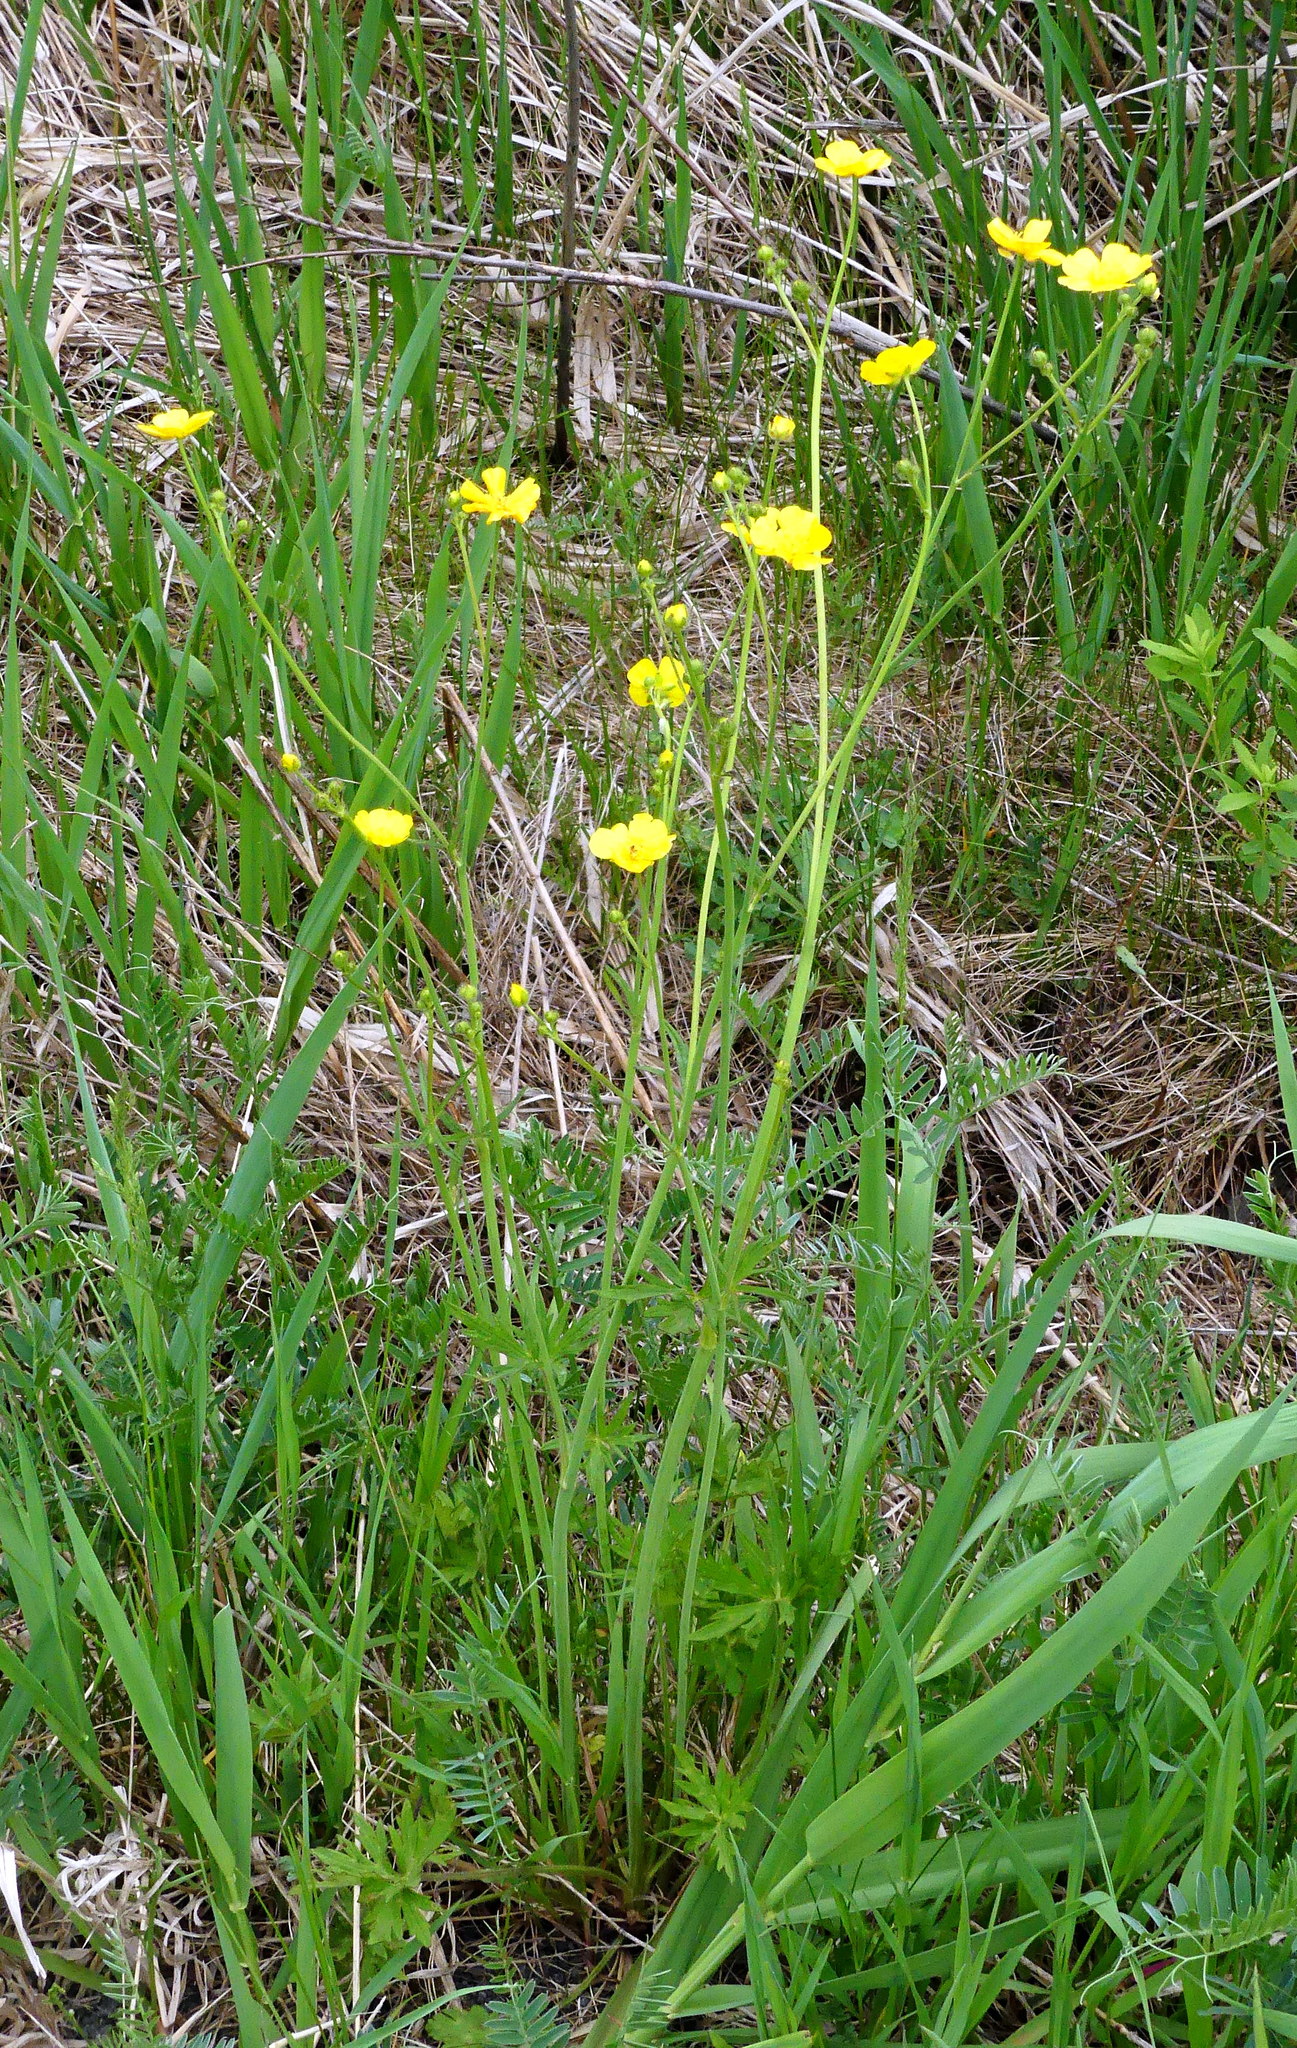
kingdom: Plantae
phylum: Tracheophyta
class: Magnoliopsida
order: Ranunculales
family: Ranunculaceae
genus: Ranunculus
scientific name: Ranunculus acris
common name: Meadow buttercup
